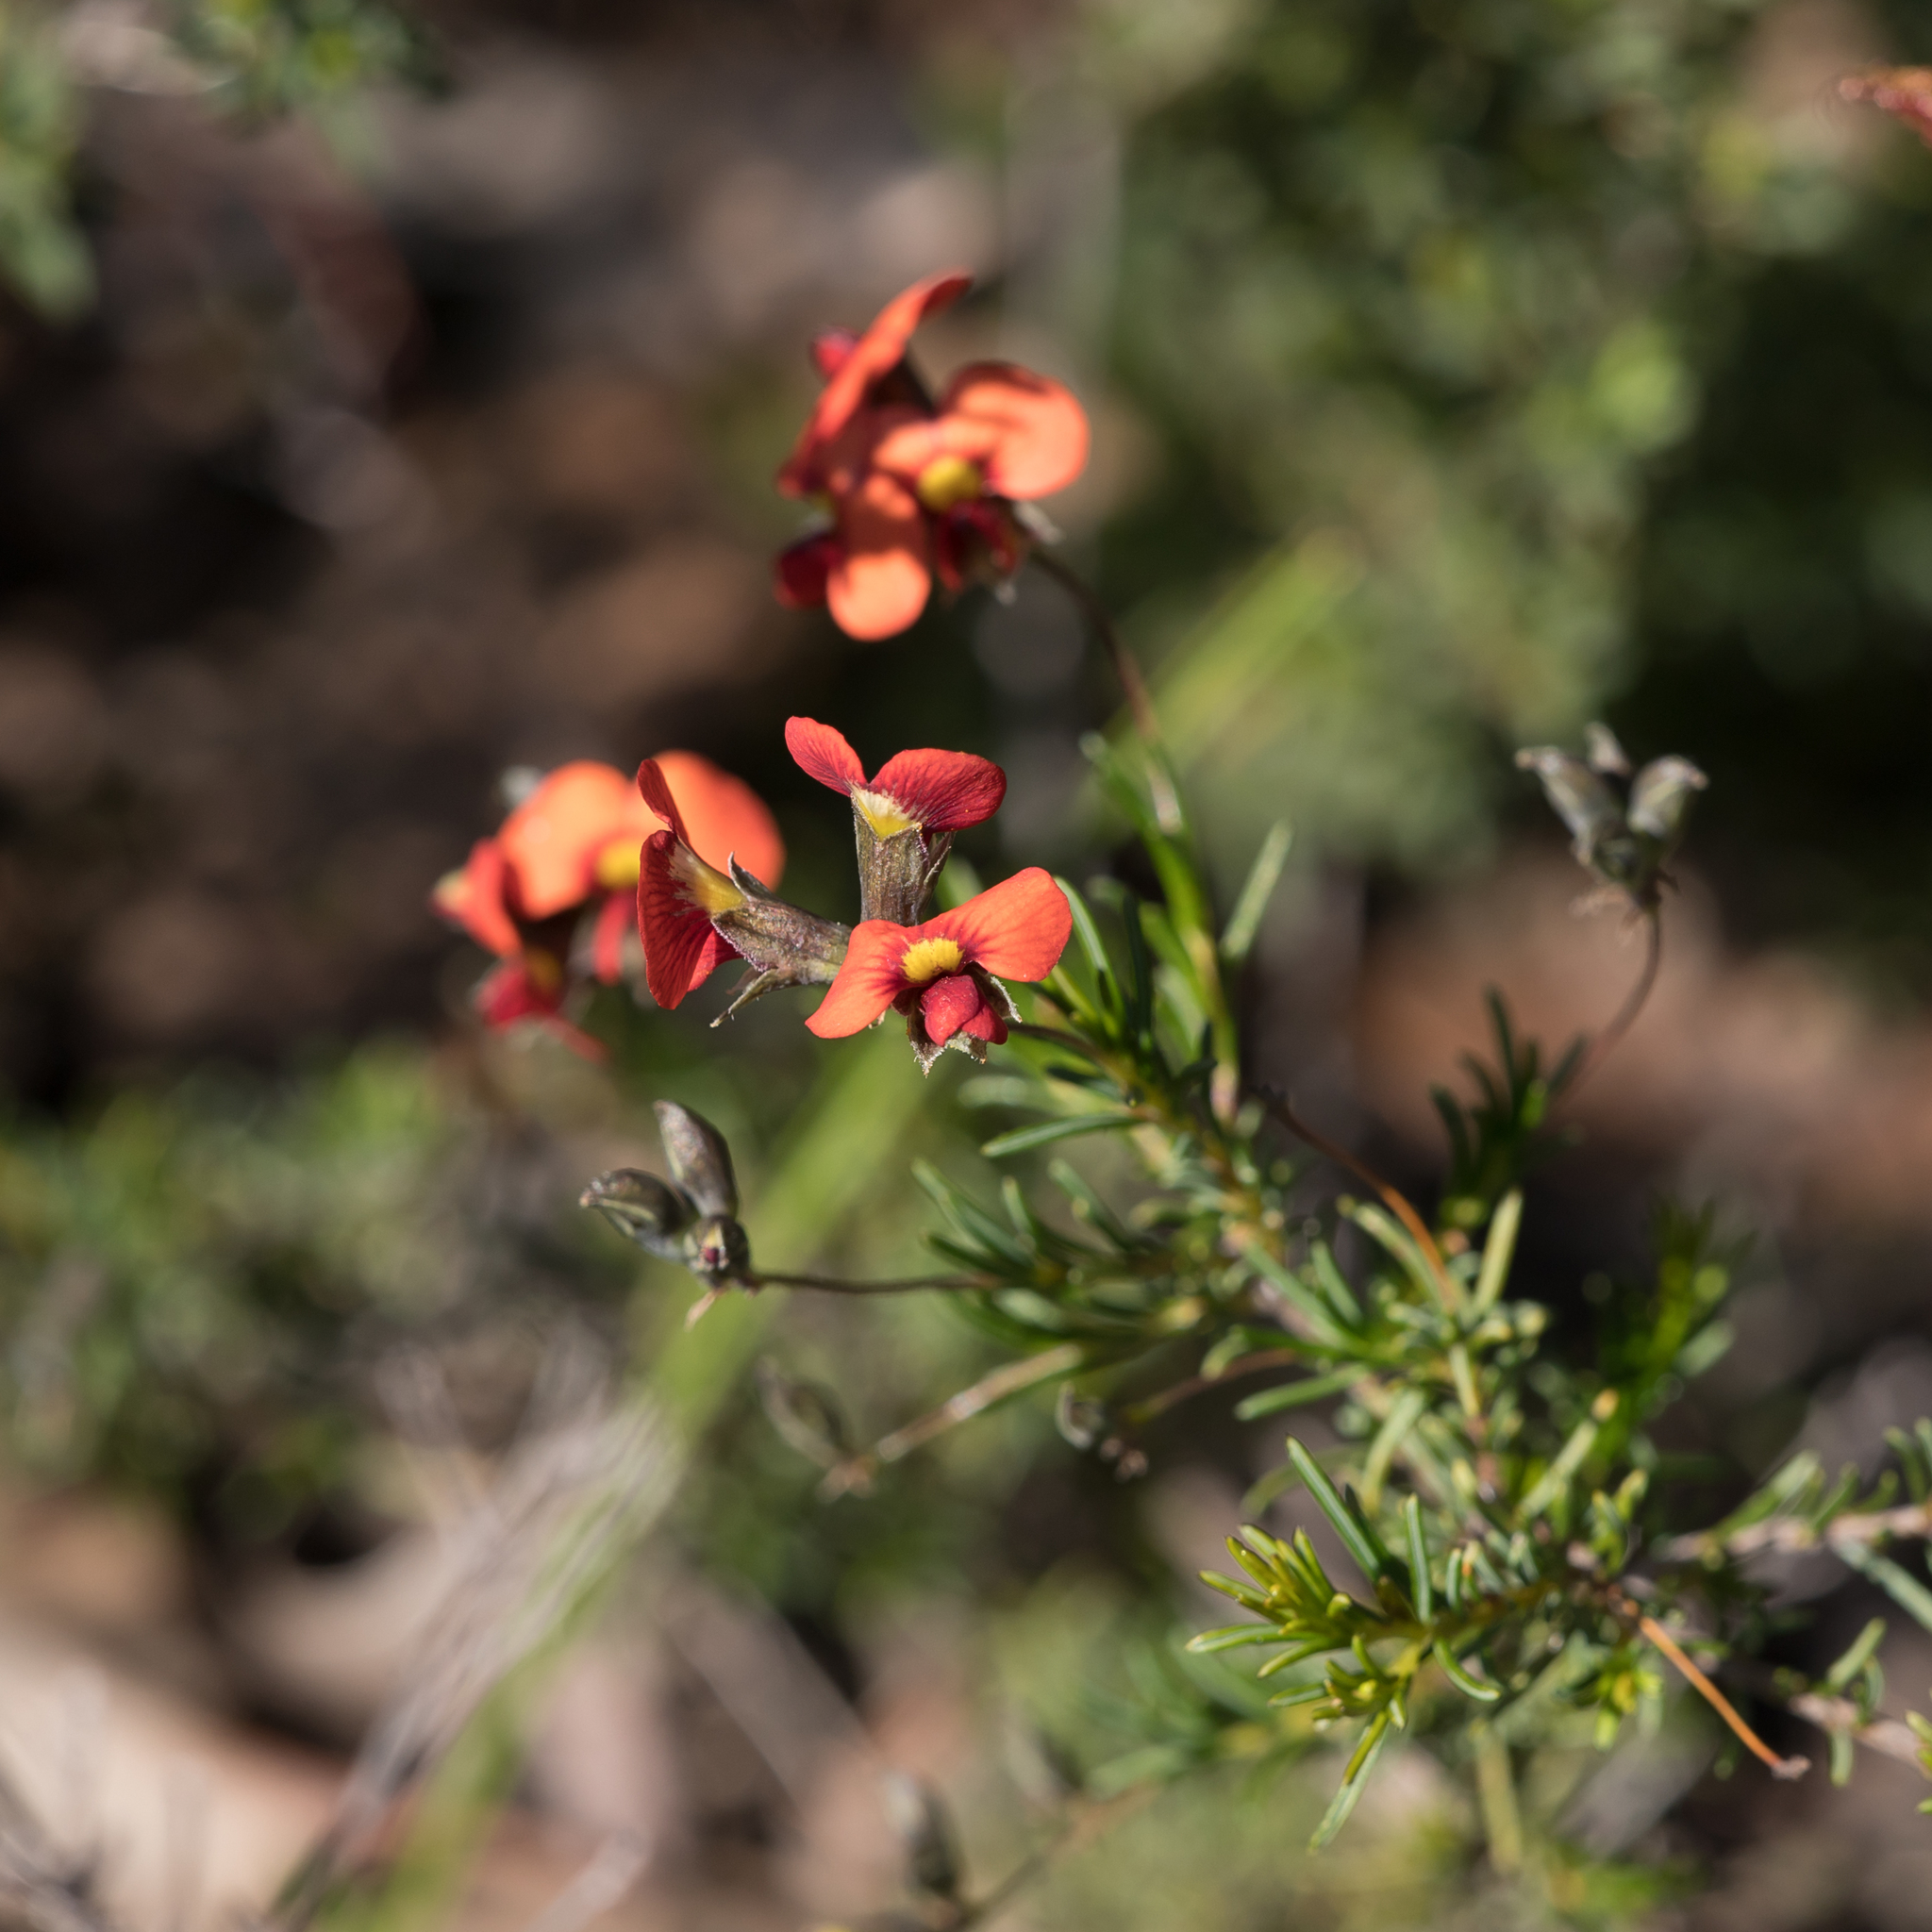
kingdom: Plantae
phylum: Tracheophyta
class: Magnoliopsida
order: Fabales
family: Fabaceae
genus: Dillwynia
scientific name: Dillwynia hispida
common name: Red parrot-pea
